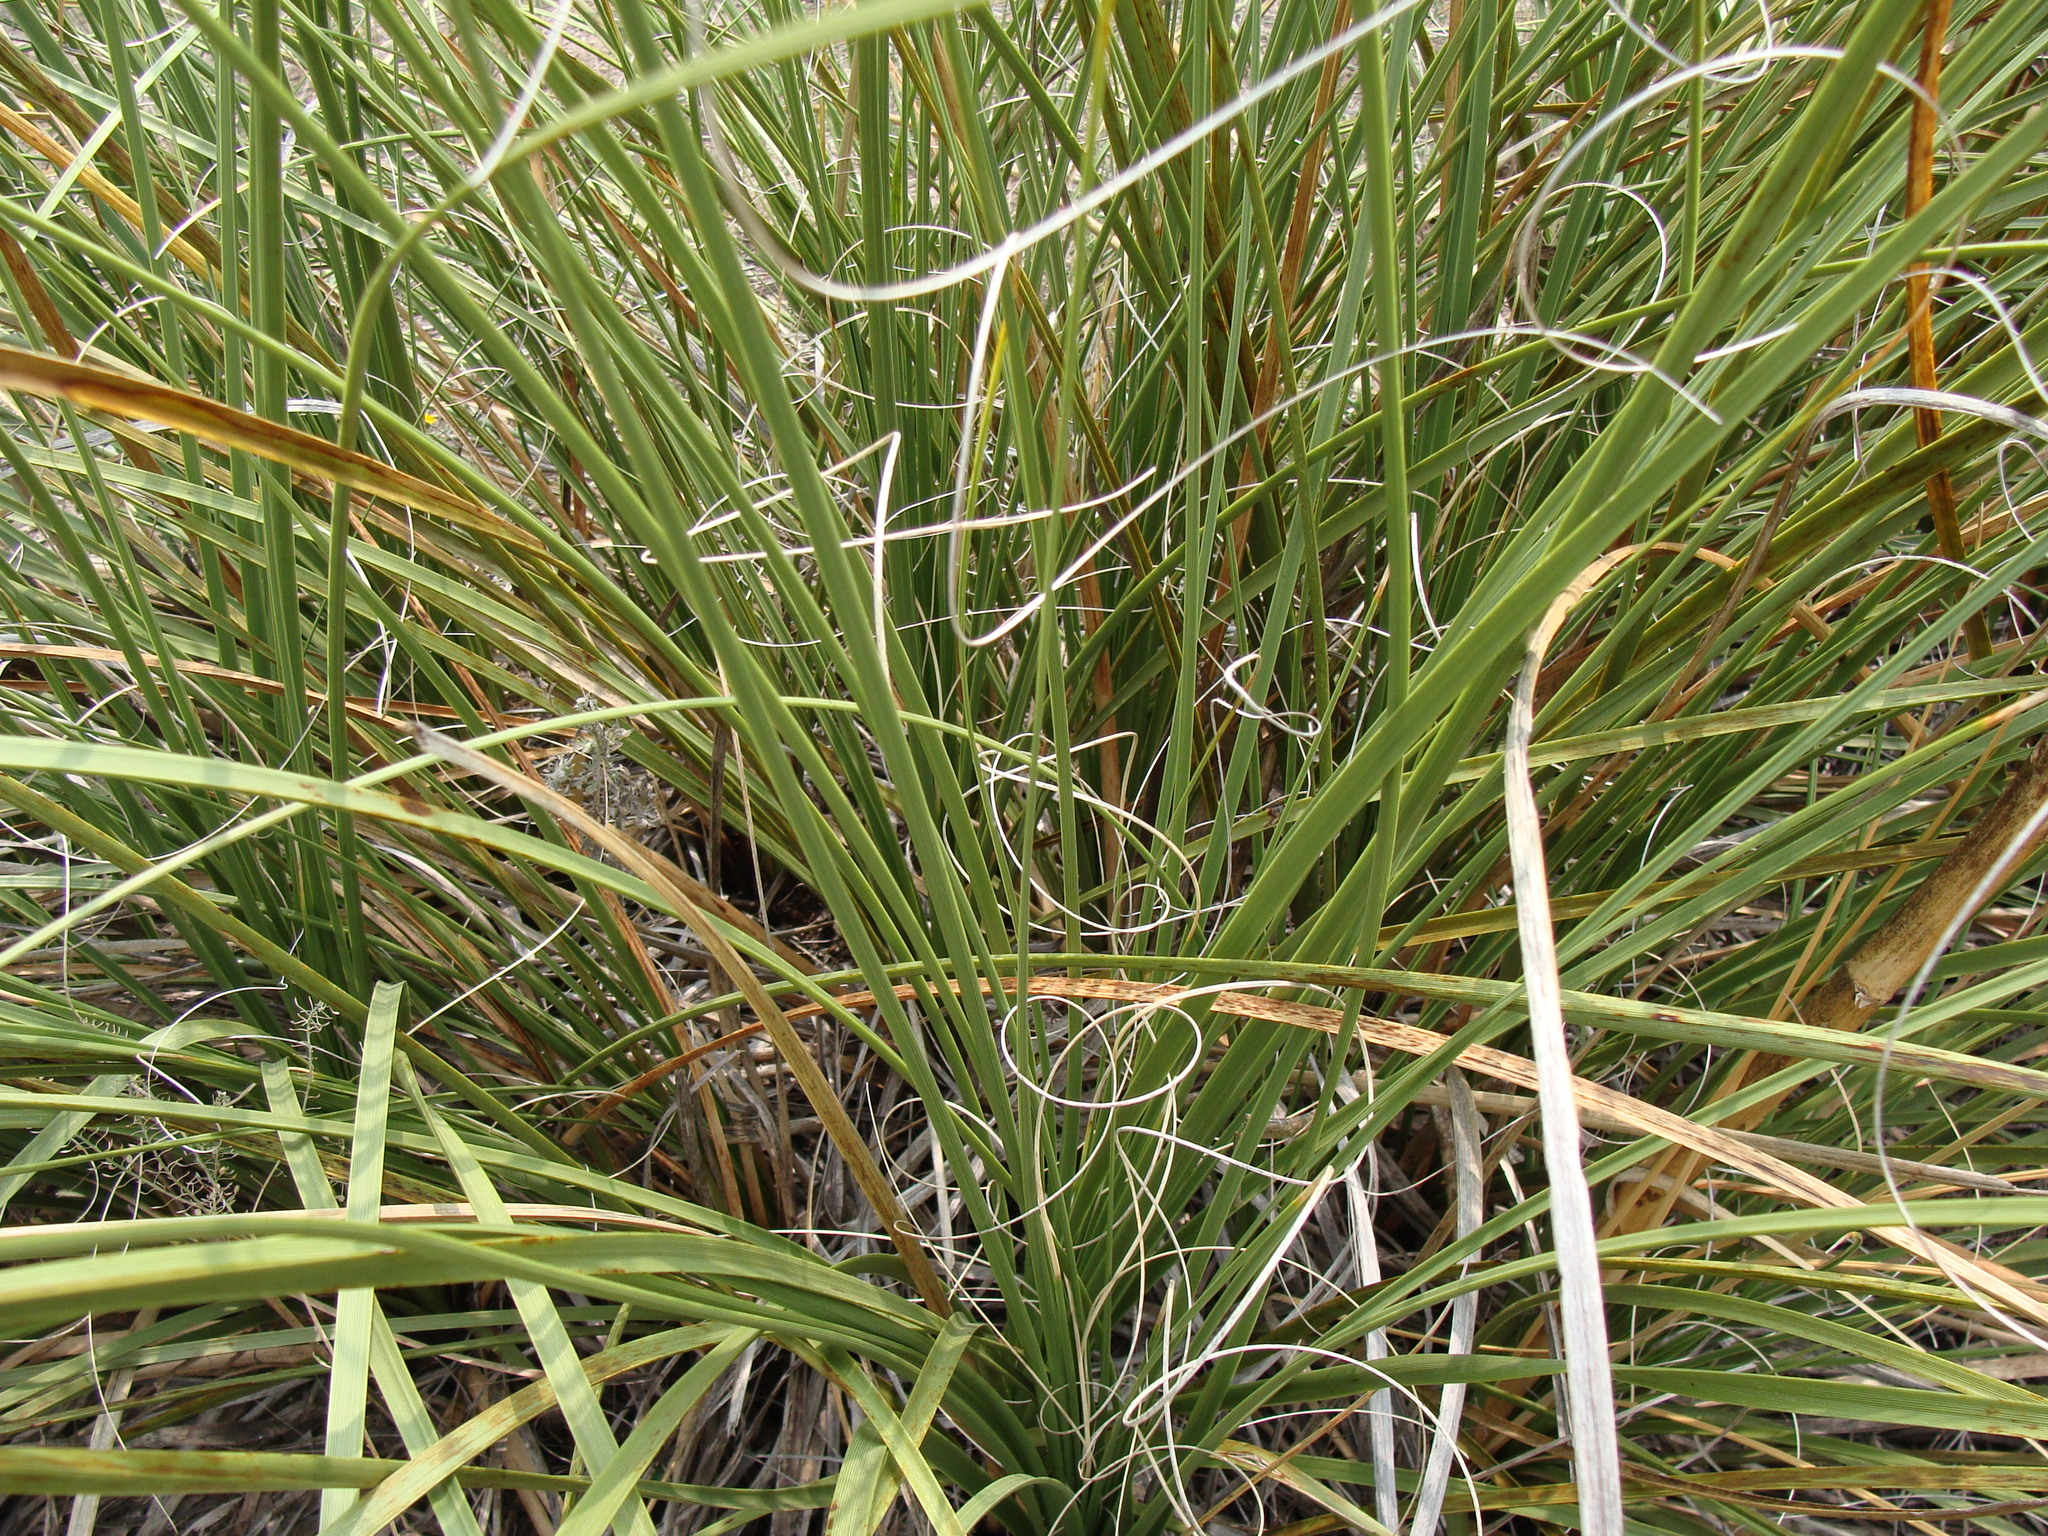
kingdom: Plantae
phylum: Tracheophyta
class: Liliopsida
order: Asparagales
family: Asparagaceae
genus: Nolina
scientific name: Nolina microcarpa
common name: Bear-grass
